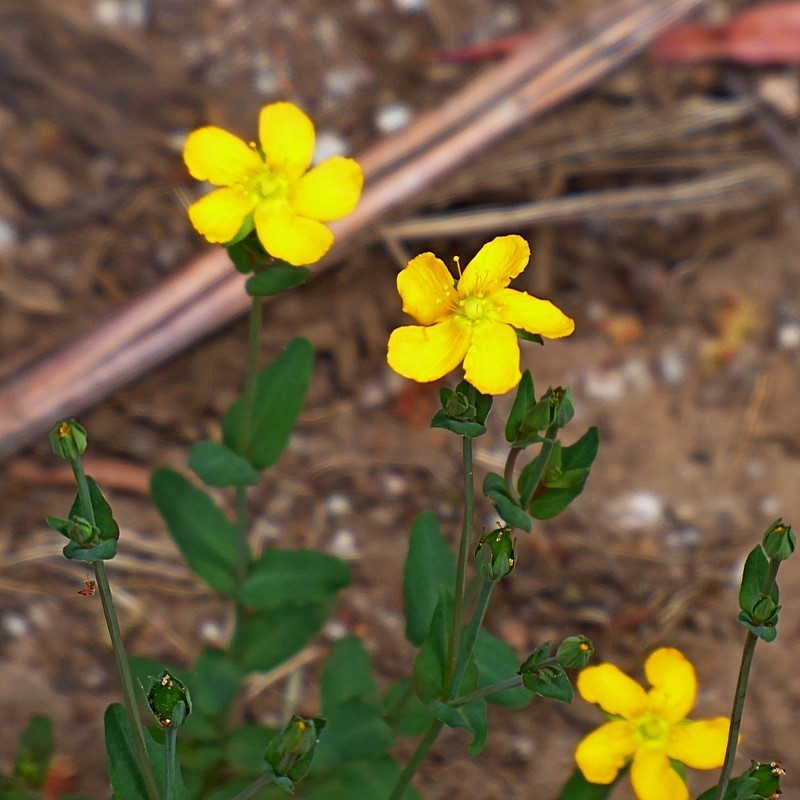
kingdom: Plantae
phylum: Tracheophyta
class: Magnoliopsida
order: Malpighiales
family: Hypericaceae
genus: Hypericum
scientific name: Hypericum gramineum
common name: Grassy st. johnswort
